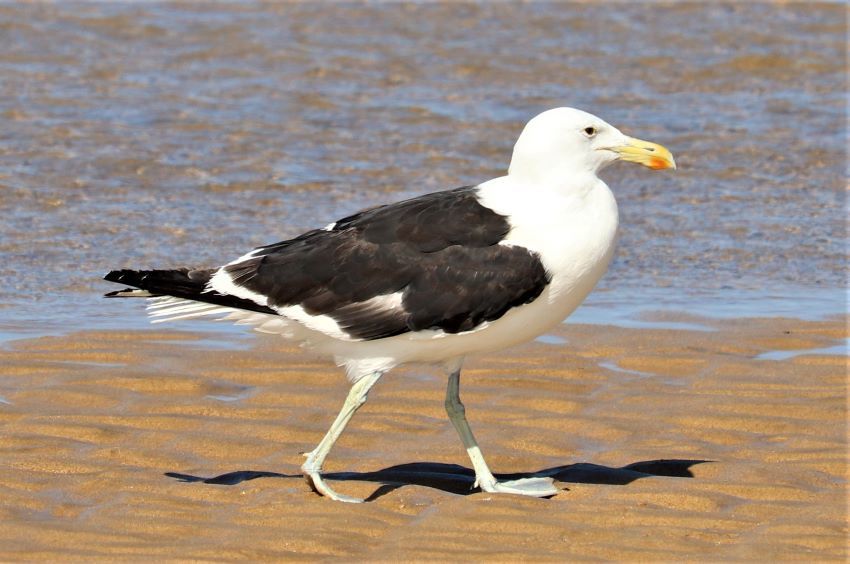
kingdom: Animalia
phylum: Chordata
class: Aves
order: Charadriiformes
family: Laridae
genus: Larus
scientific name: Larus dominicanus
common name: Kelp gull
